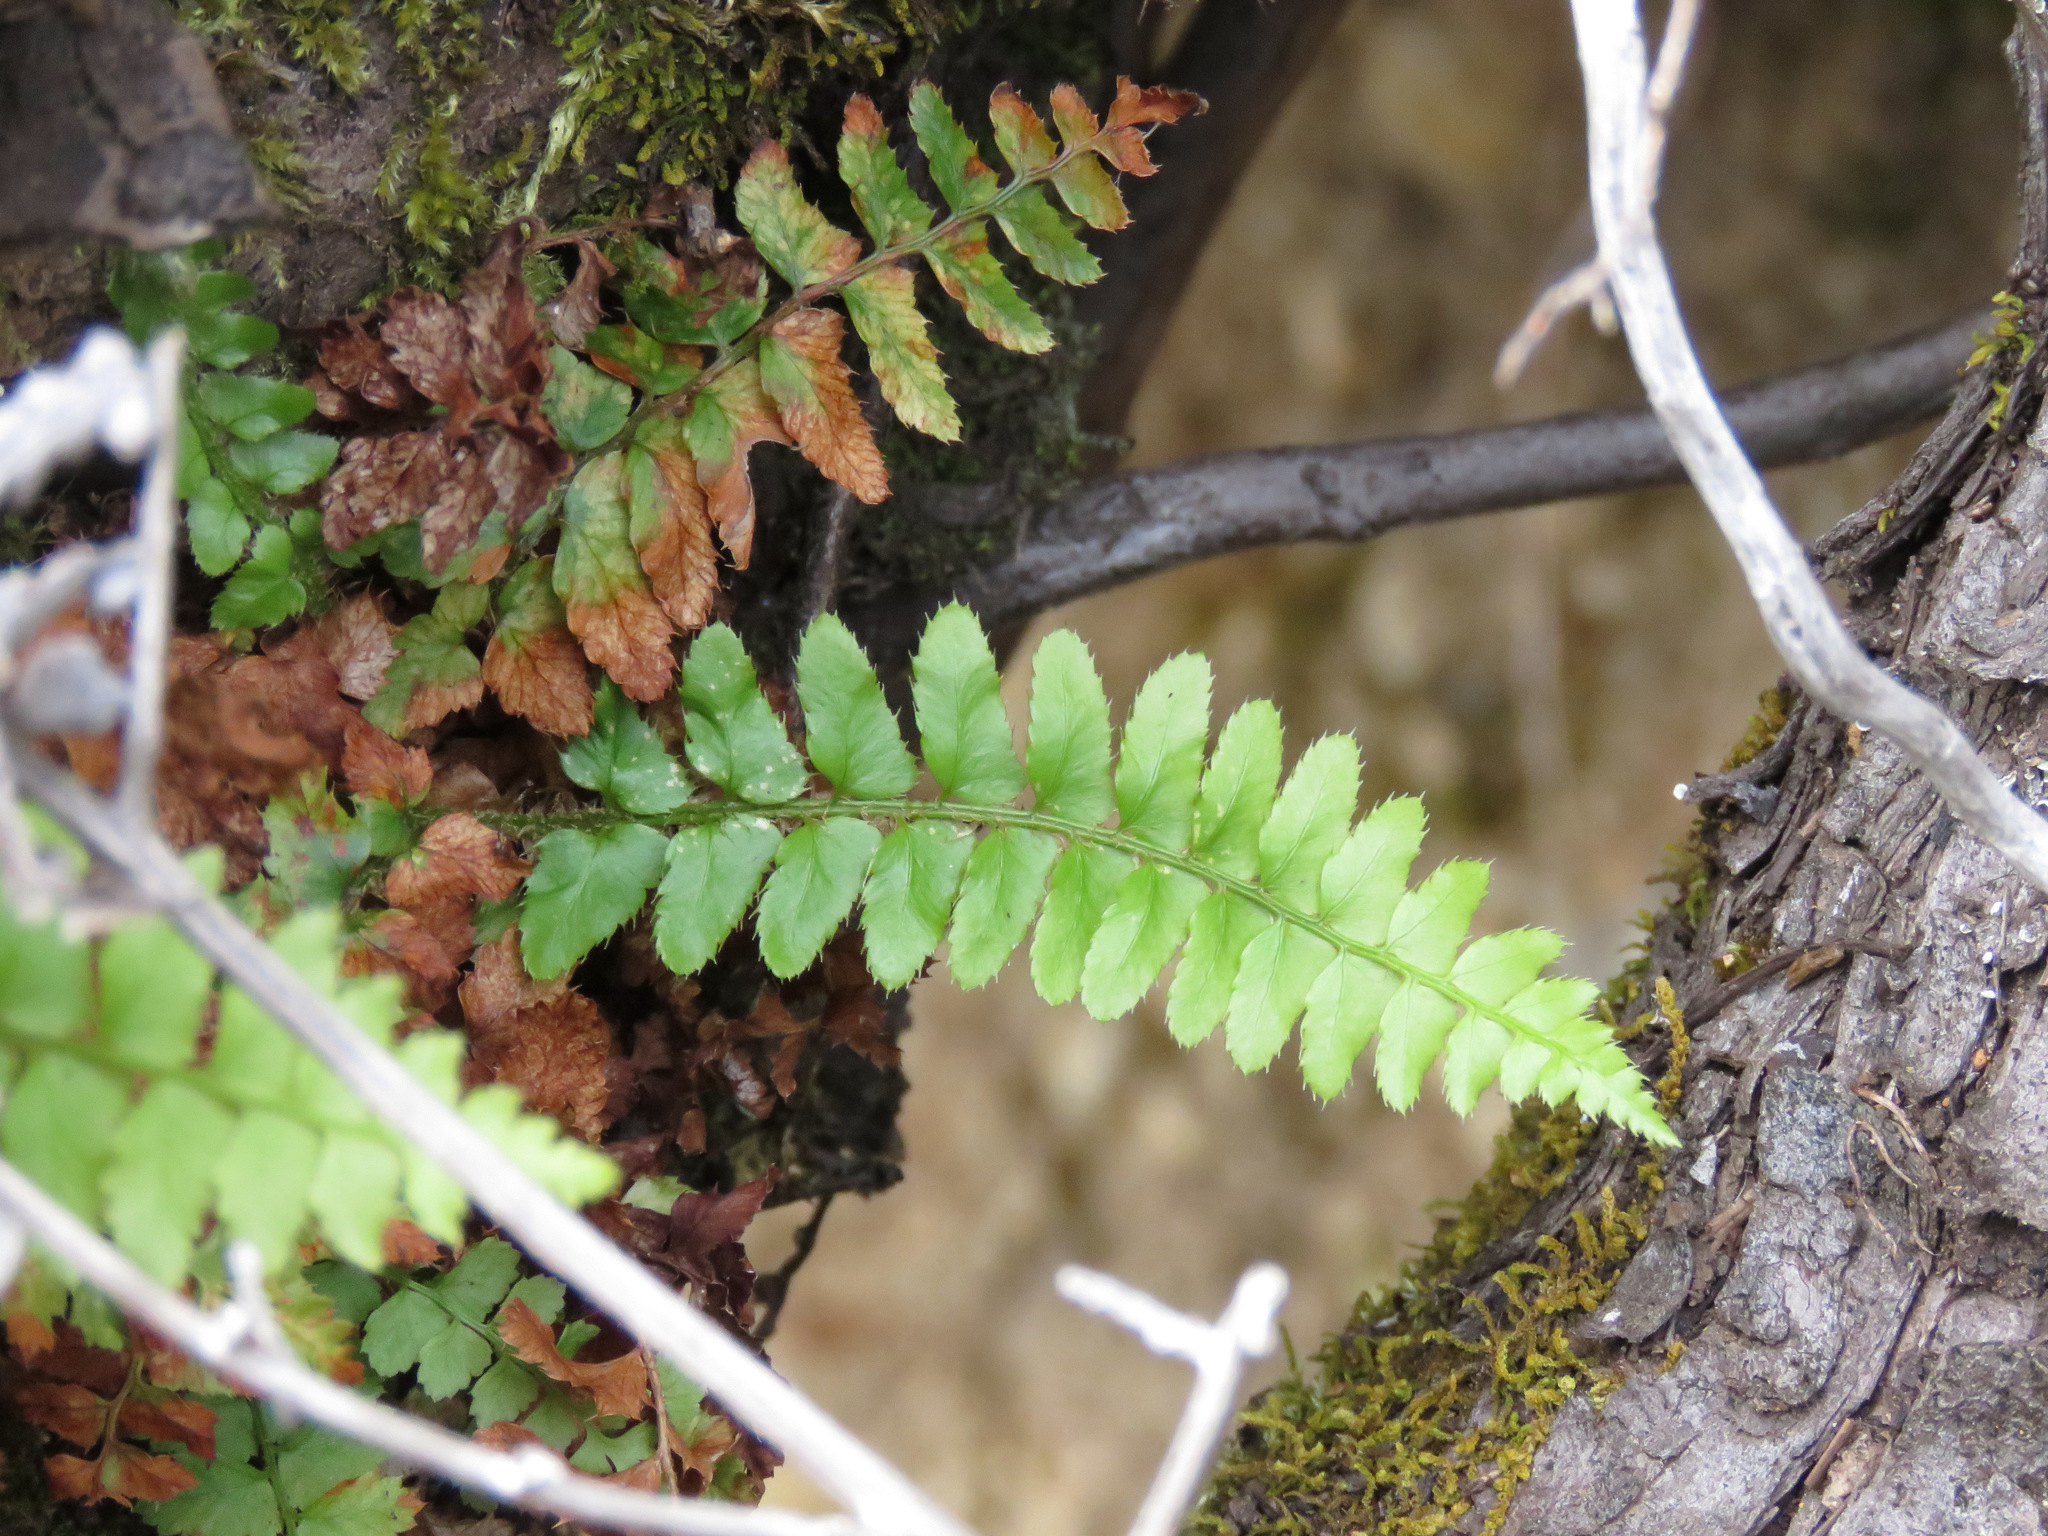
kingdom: Plantae
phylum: Tracheophyta
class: Polypodiopsida
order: Polypodiales
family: Dryopteridaceae
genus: Polystichum
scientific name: Polystichum munitum
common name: Western sword-fern
